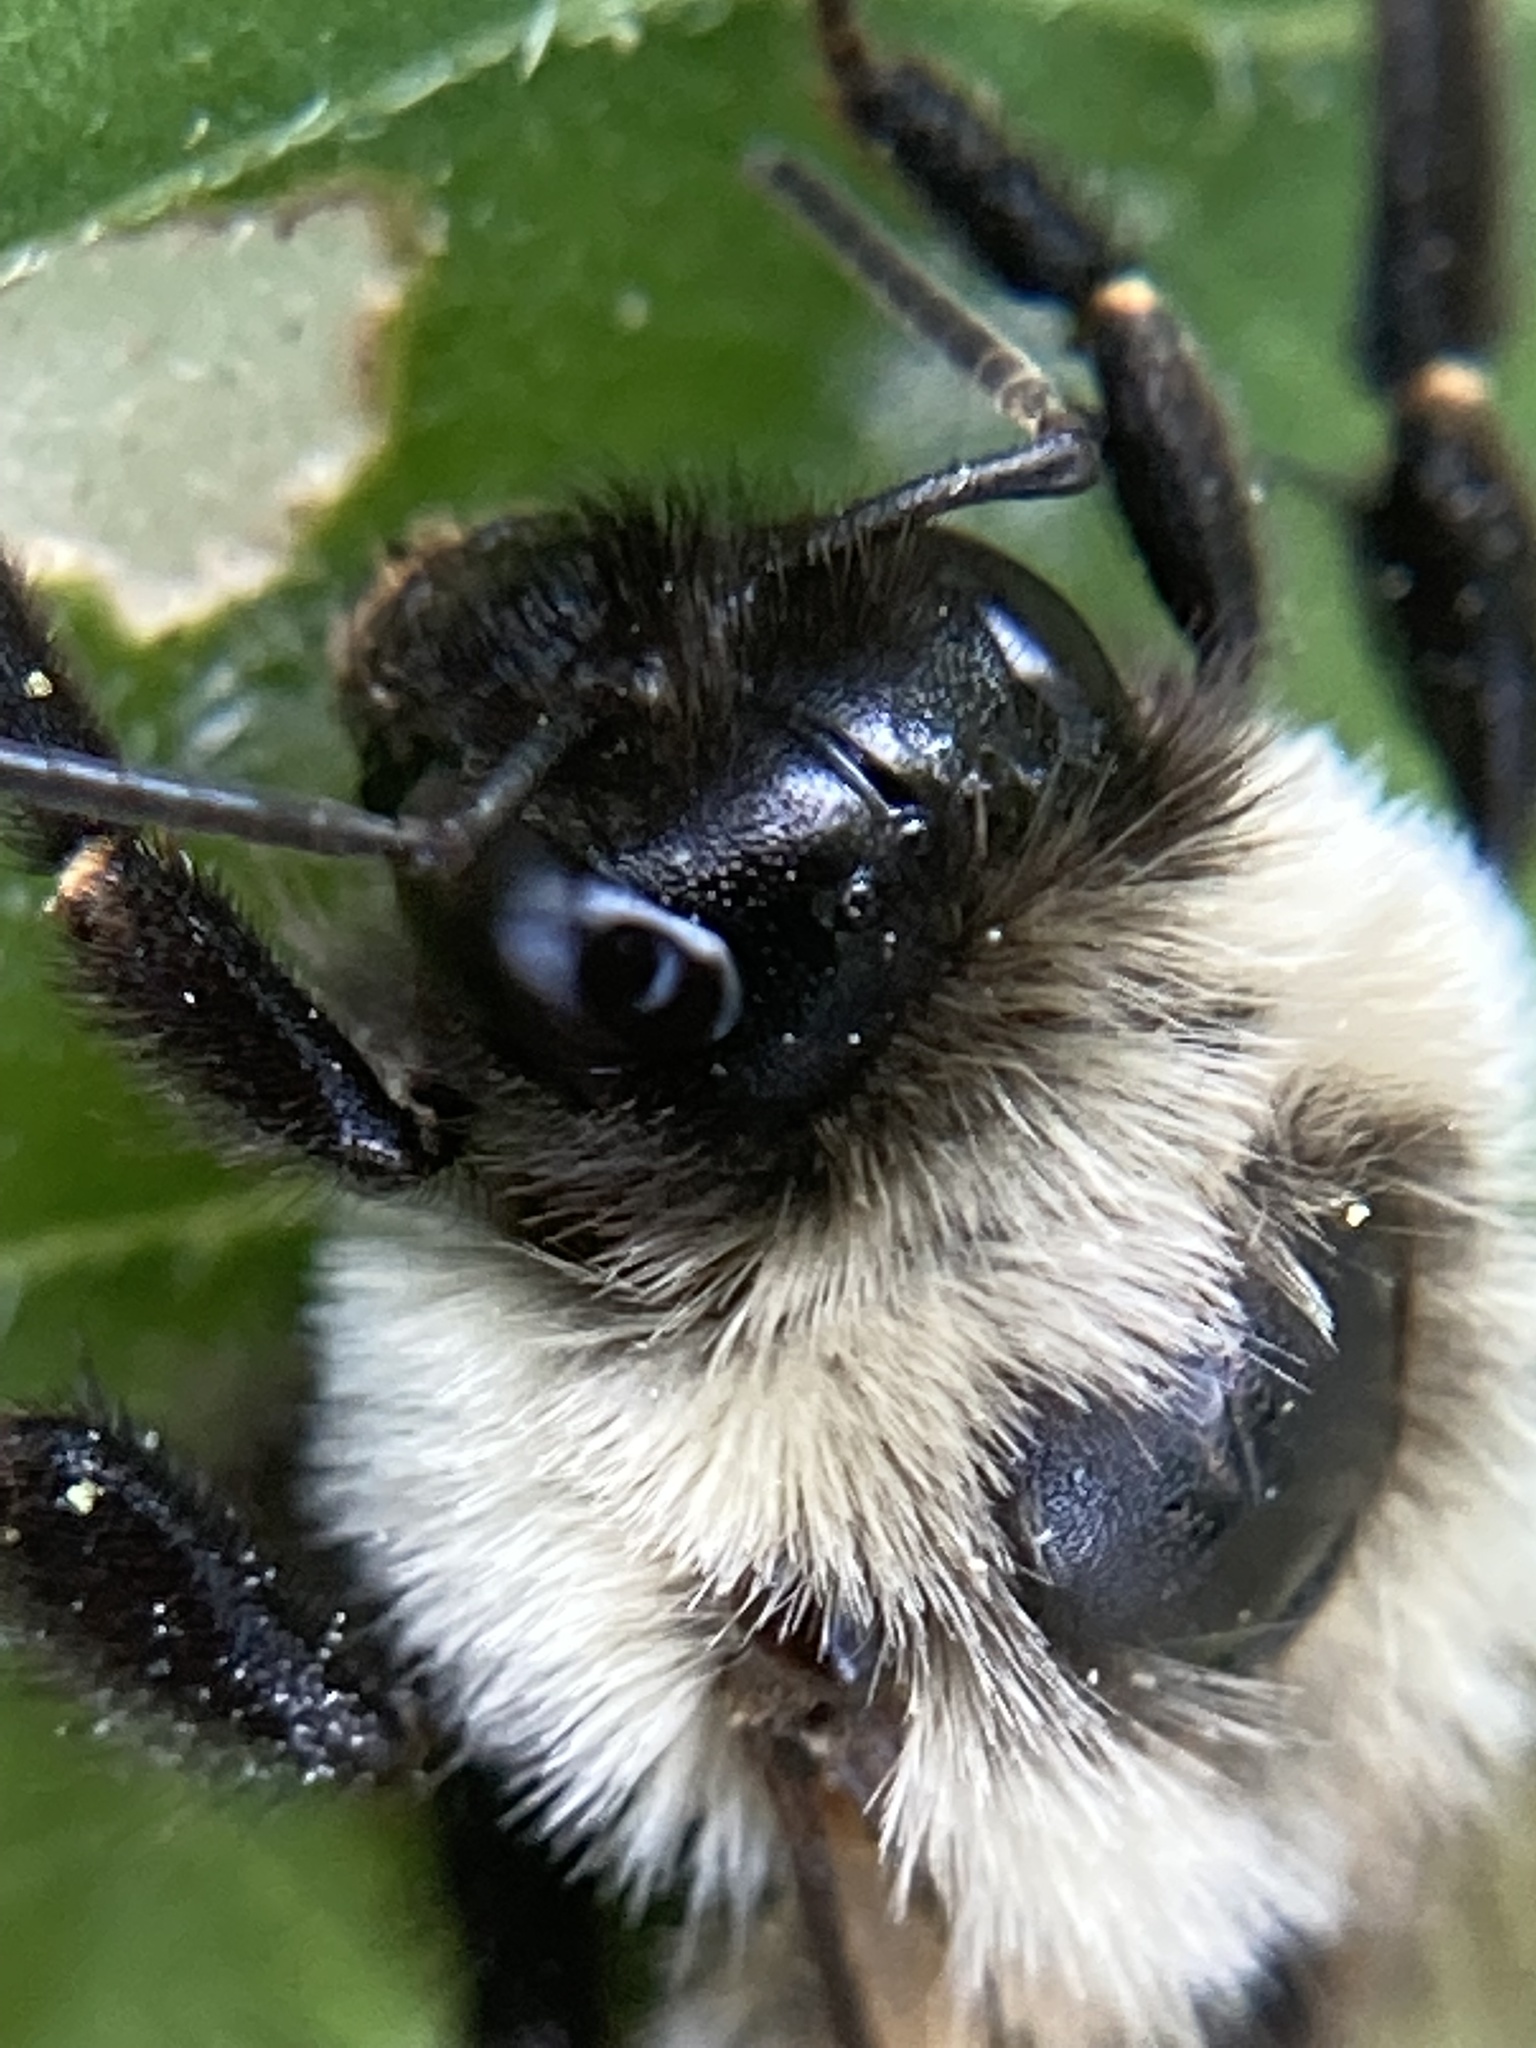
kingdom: Animalia
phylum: Arthropoda
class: Insecta
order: Hymenoptera
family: Apidae
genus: Bombus
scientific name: Bombus impatiens
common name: Common eastern bumble bee
